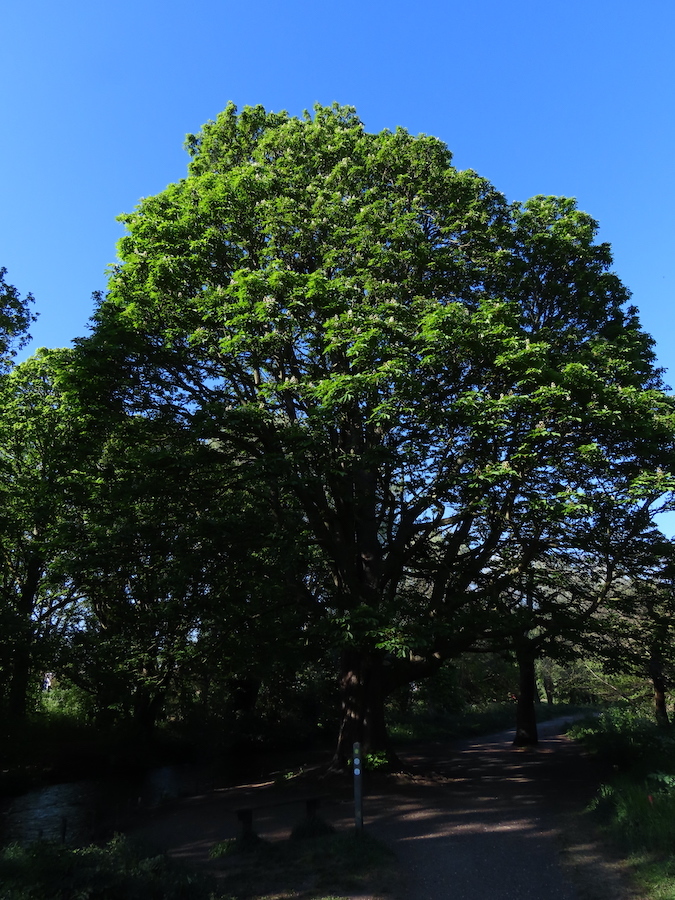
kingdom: Plantae
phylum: Tracheophyta
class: Magnoliopsida
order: Sapindales
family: Sapindaceae
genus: Aesculus
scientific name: Aesculus hippocastanum
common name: Horse-chestnut
